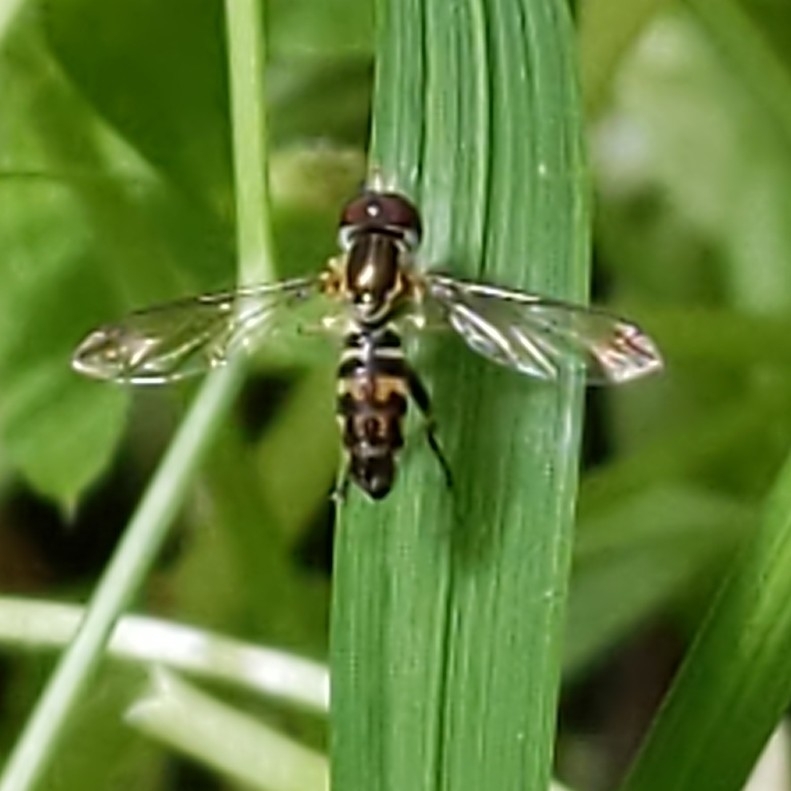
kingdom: Animalia
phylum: Arthropoda
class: Insecta
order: Diptera
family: Syrphidae
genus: Toxomerus
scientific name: Toxomerus geminatus
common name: Eastern calligrapher
